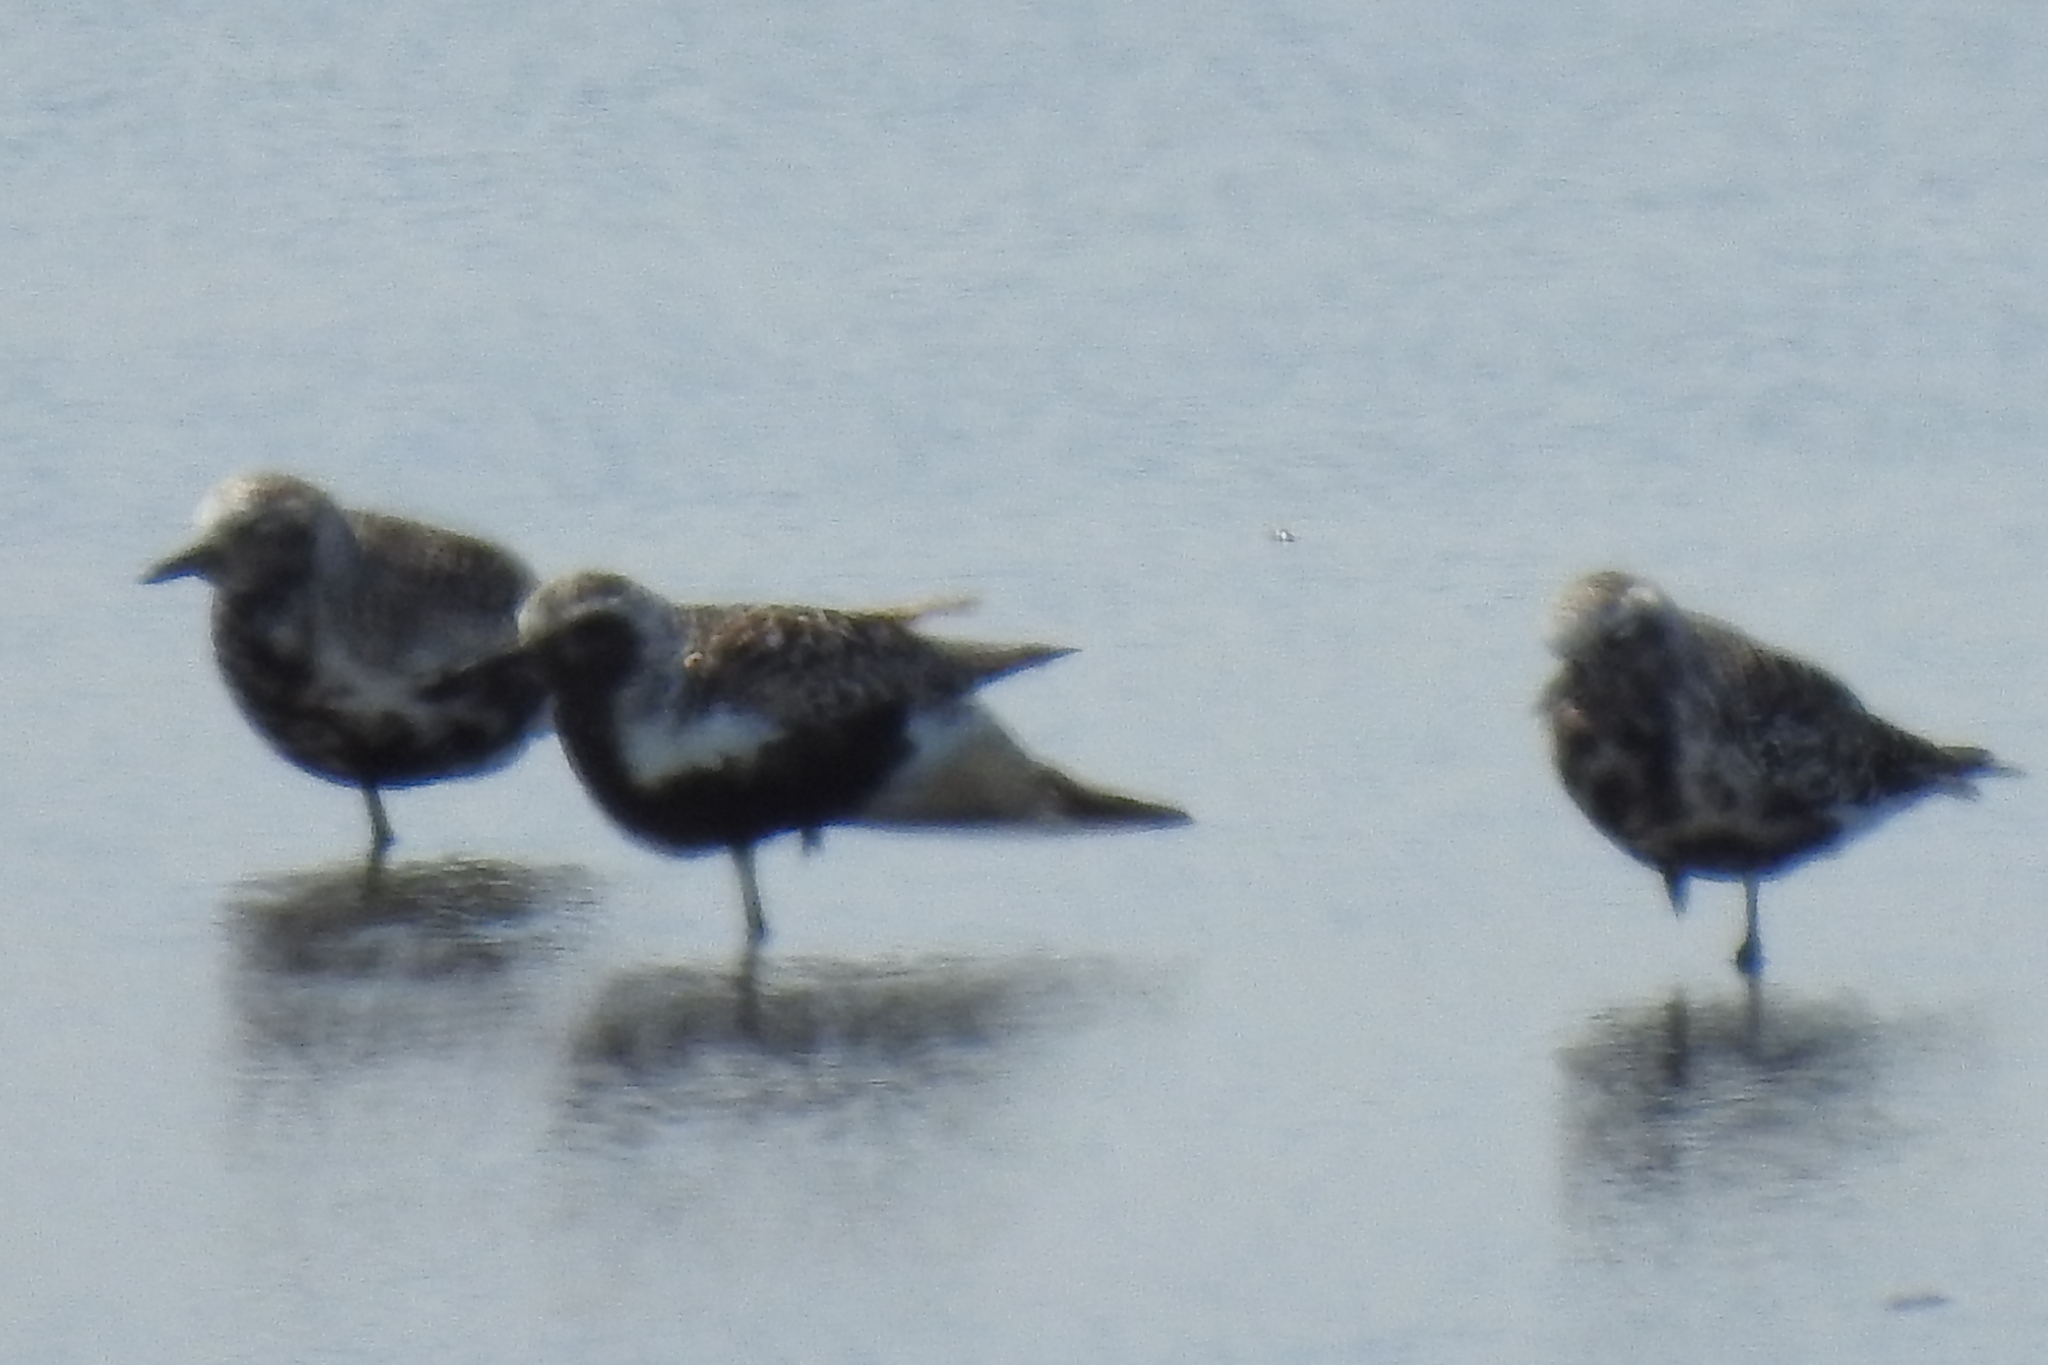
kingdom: Animalia
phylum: Chordata
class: Aves
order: Charadriiformes
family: Charadriidae
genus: Pluvialis
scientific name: Pluvialis squatarola
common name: Grey plover
